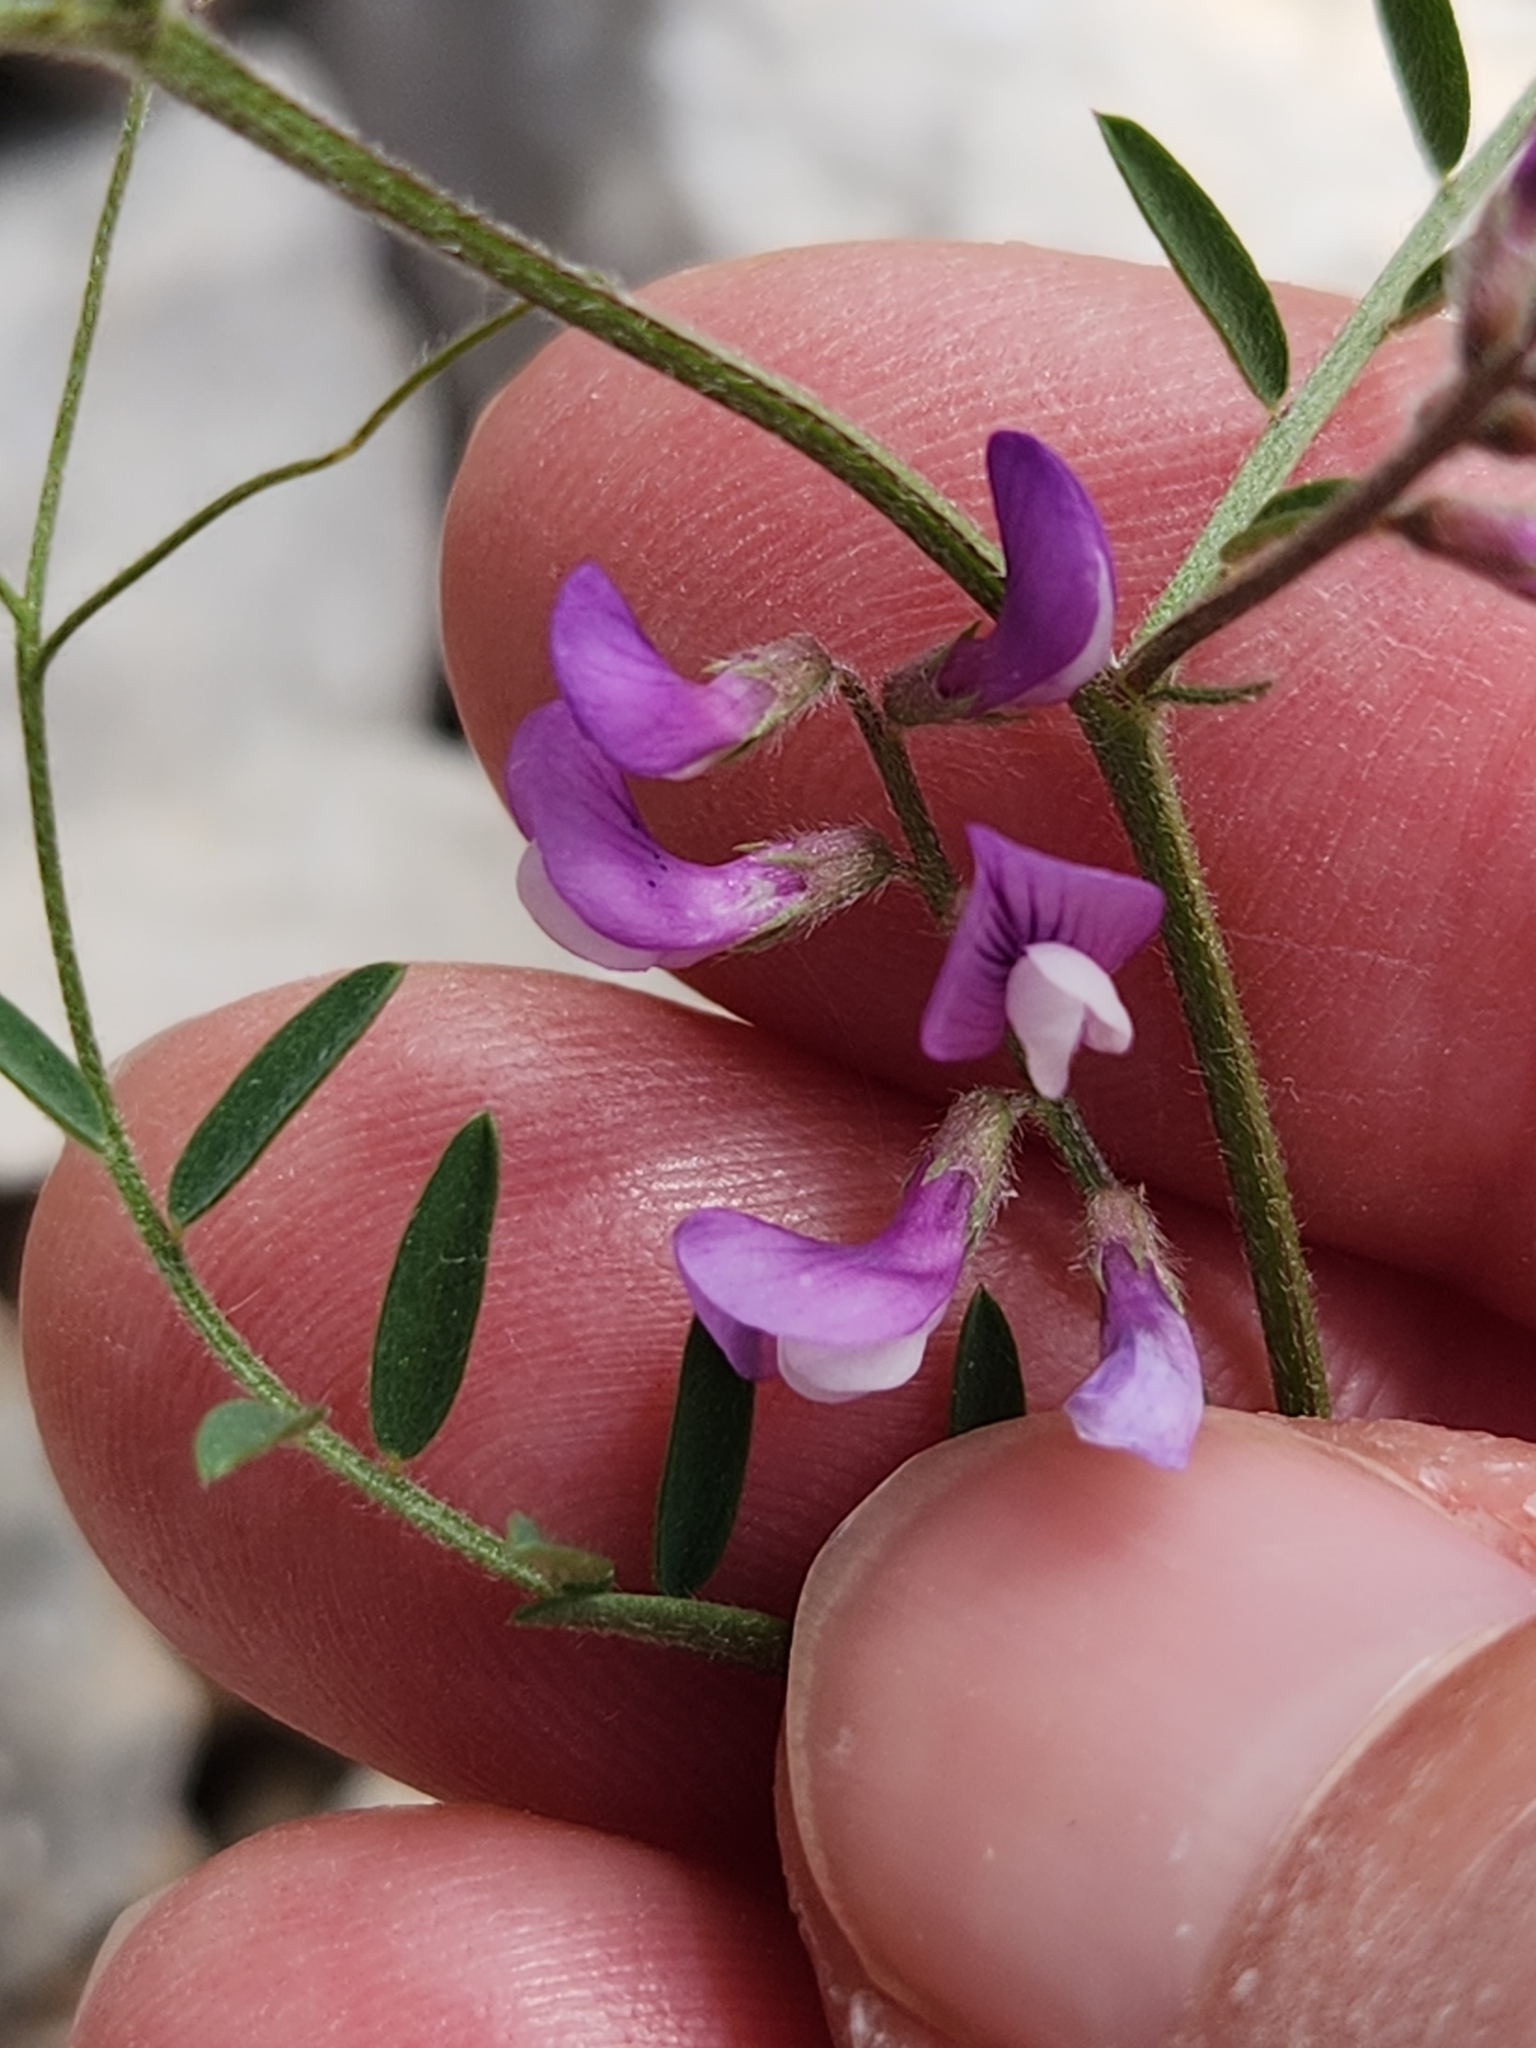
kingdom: Plantae
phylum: Tracheophyta
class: Magnoliopsida
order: Fabales
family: Fabaceae
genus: Vicia
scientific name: Vicia ludoviciana
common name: Louisiana vetch
